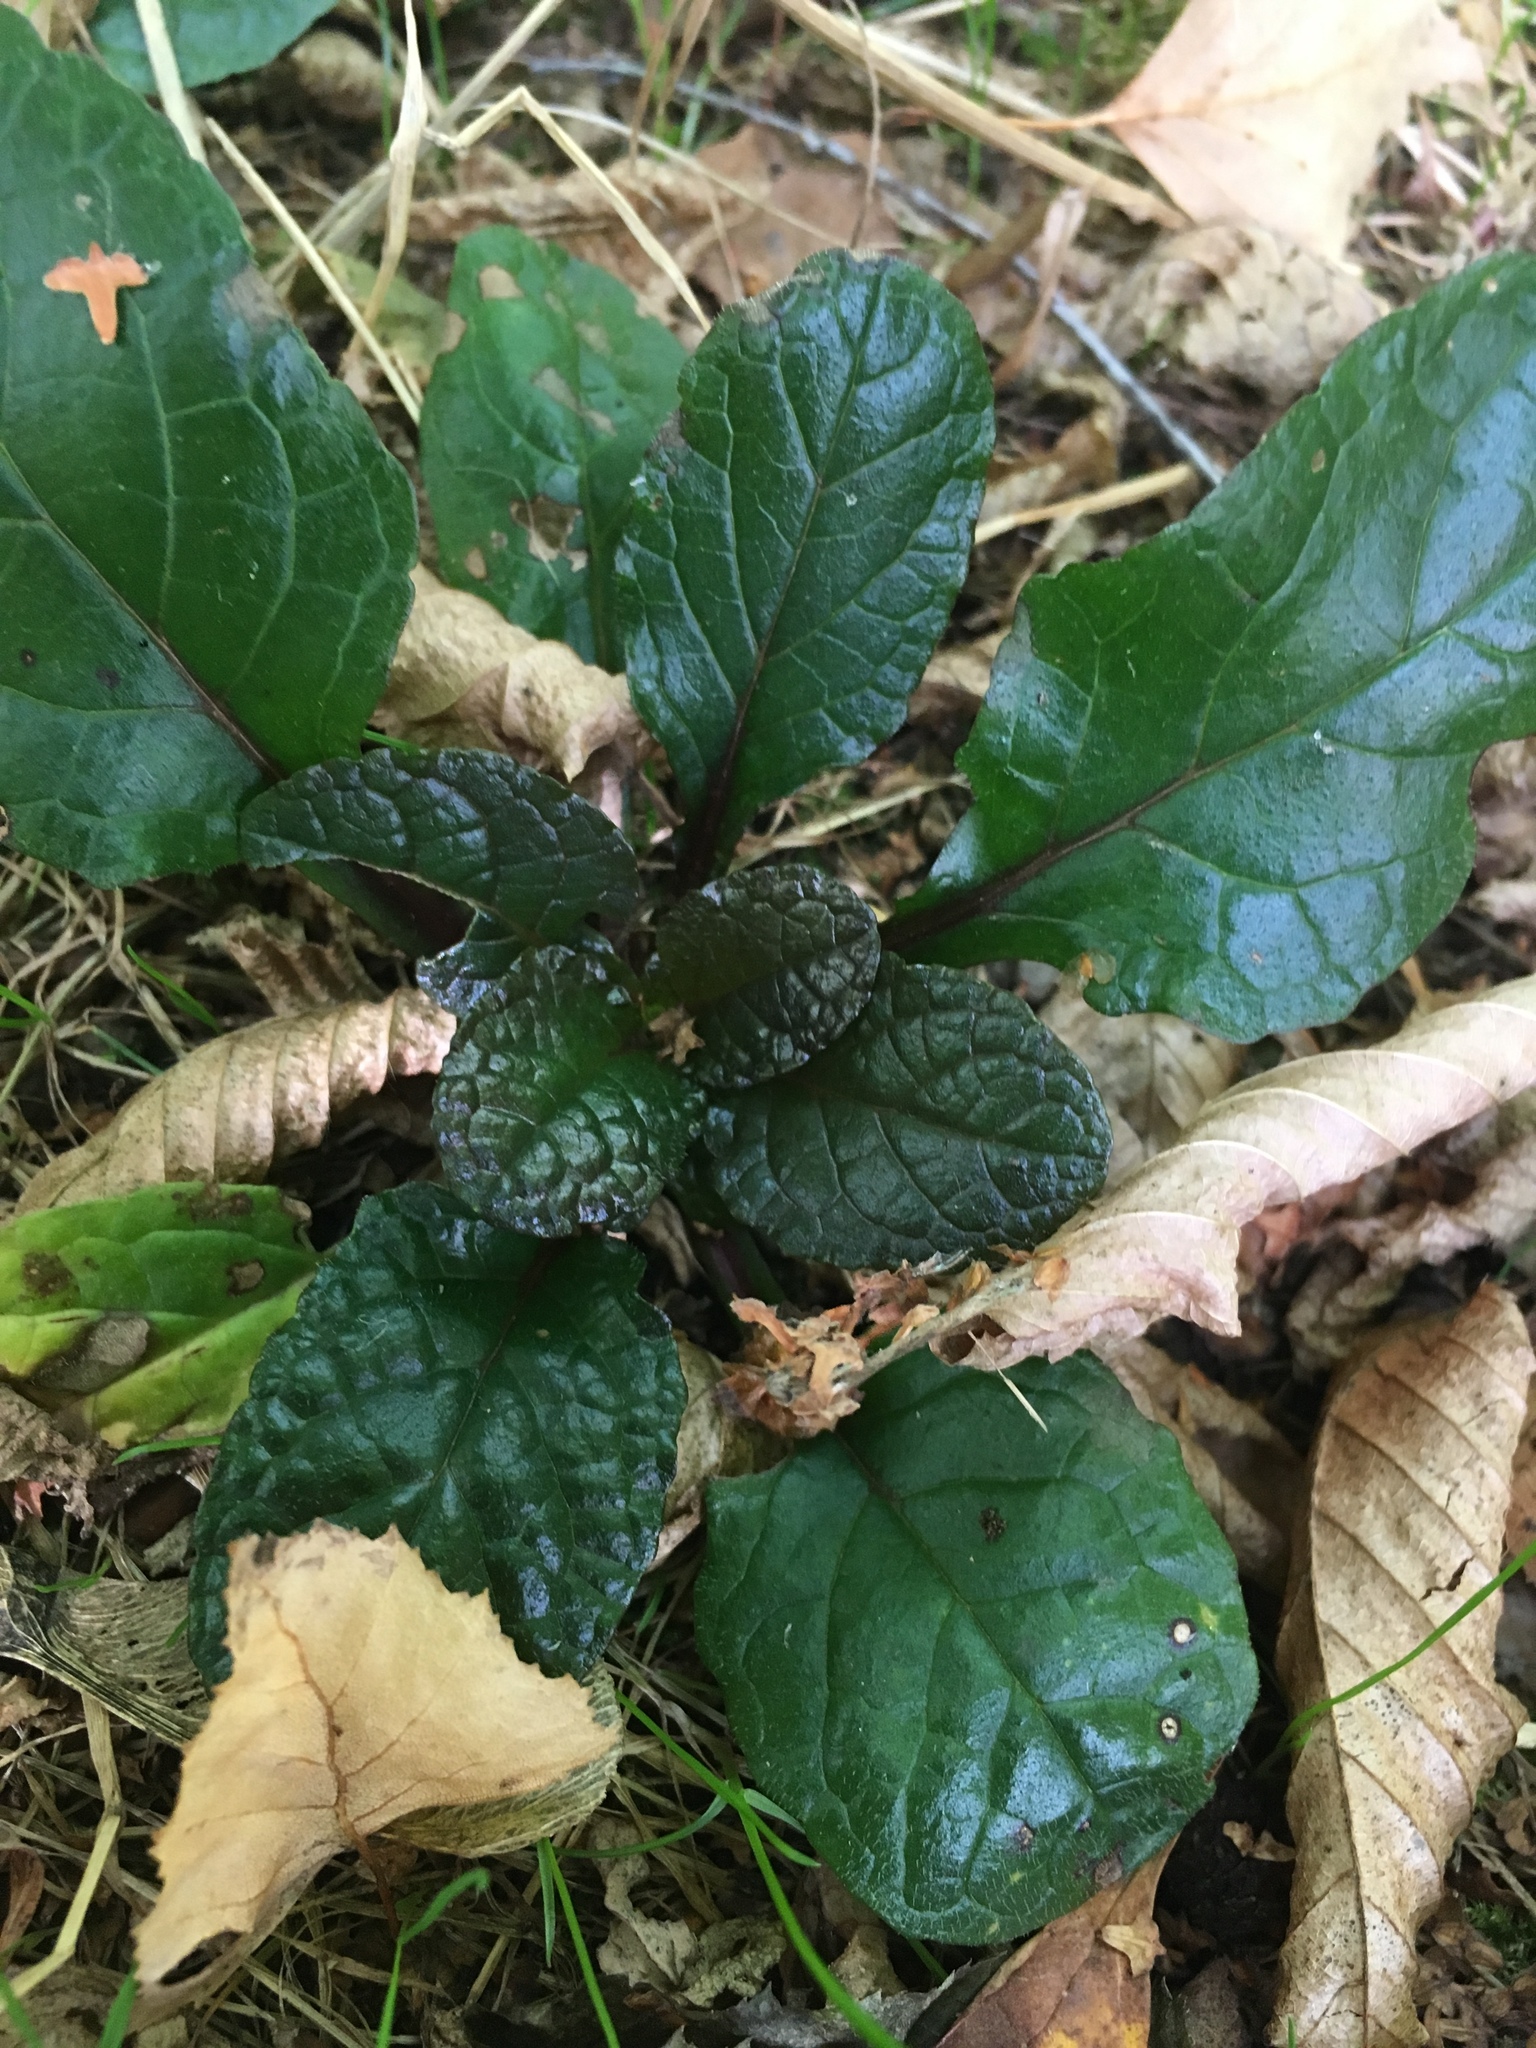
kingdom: Plantae
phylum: Tracheophyta
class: Magnoliopsida
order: Lamiales
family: Lamiaceae
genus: Ajuga
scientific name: Ajuga reptans
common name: Bugle
